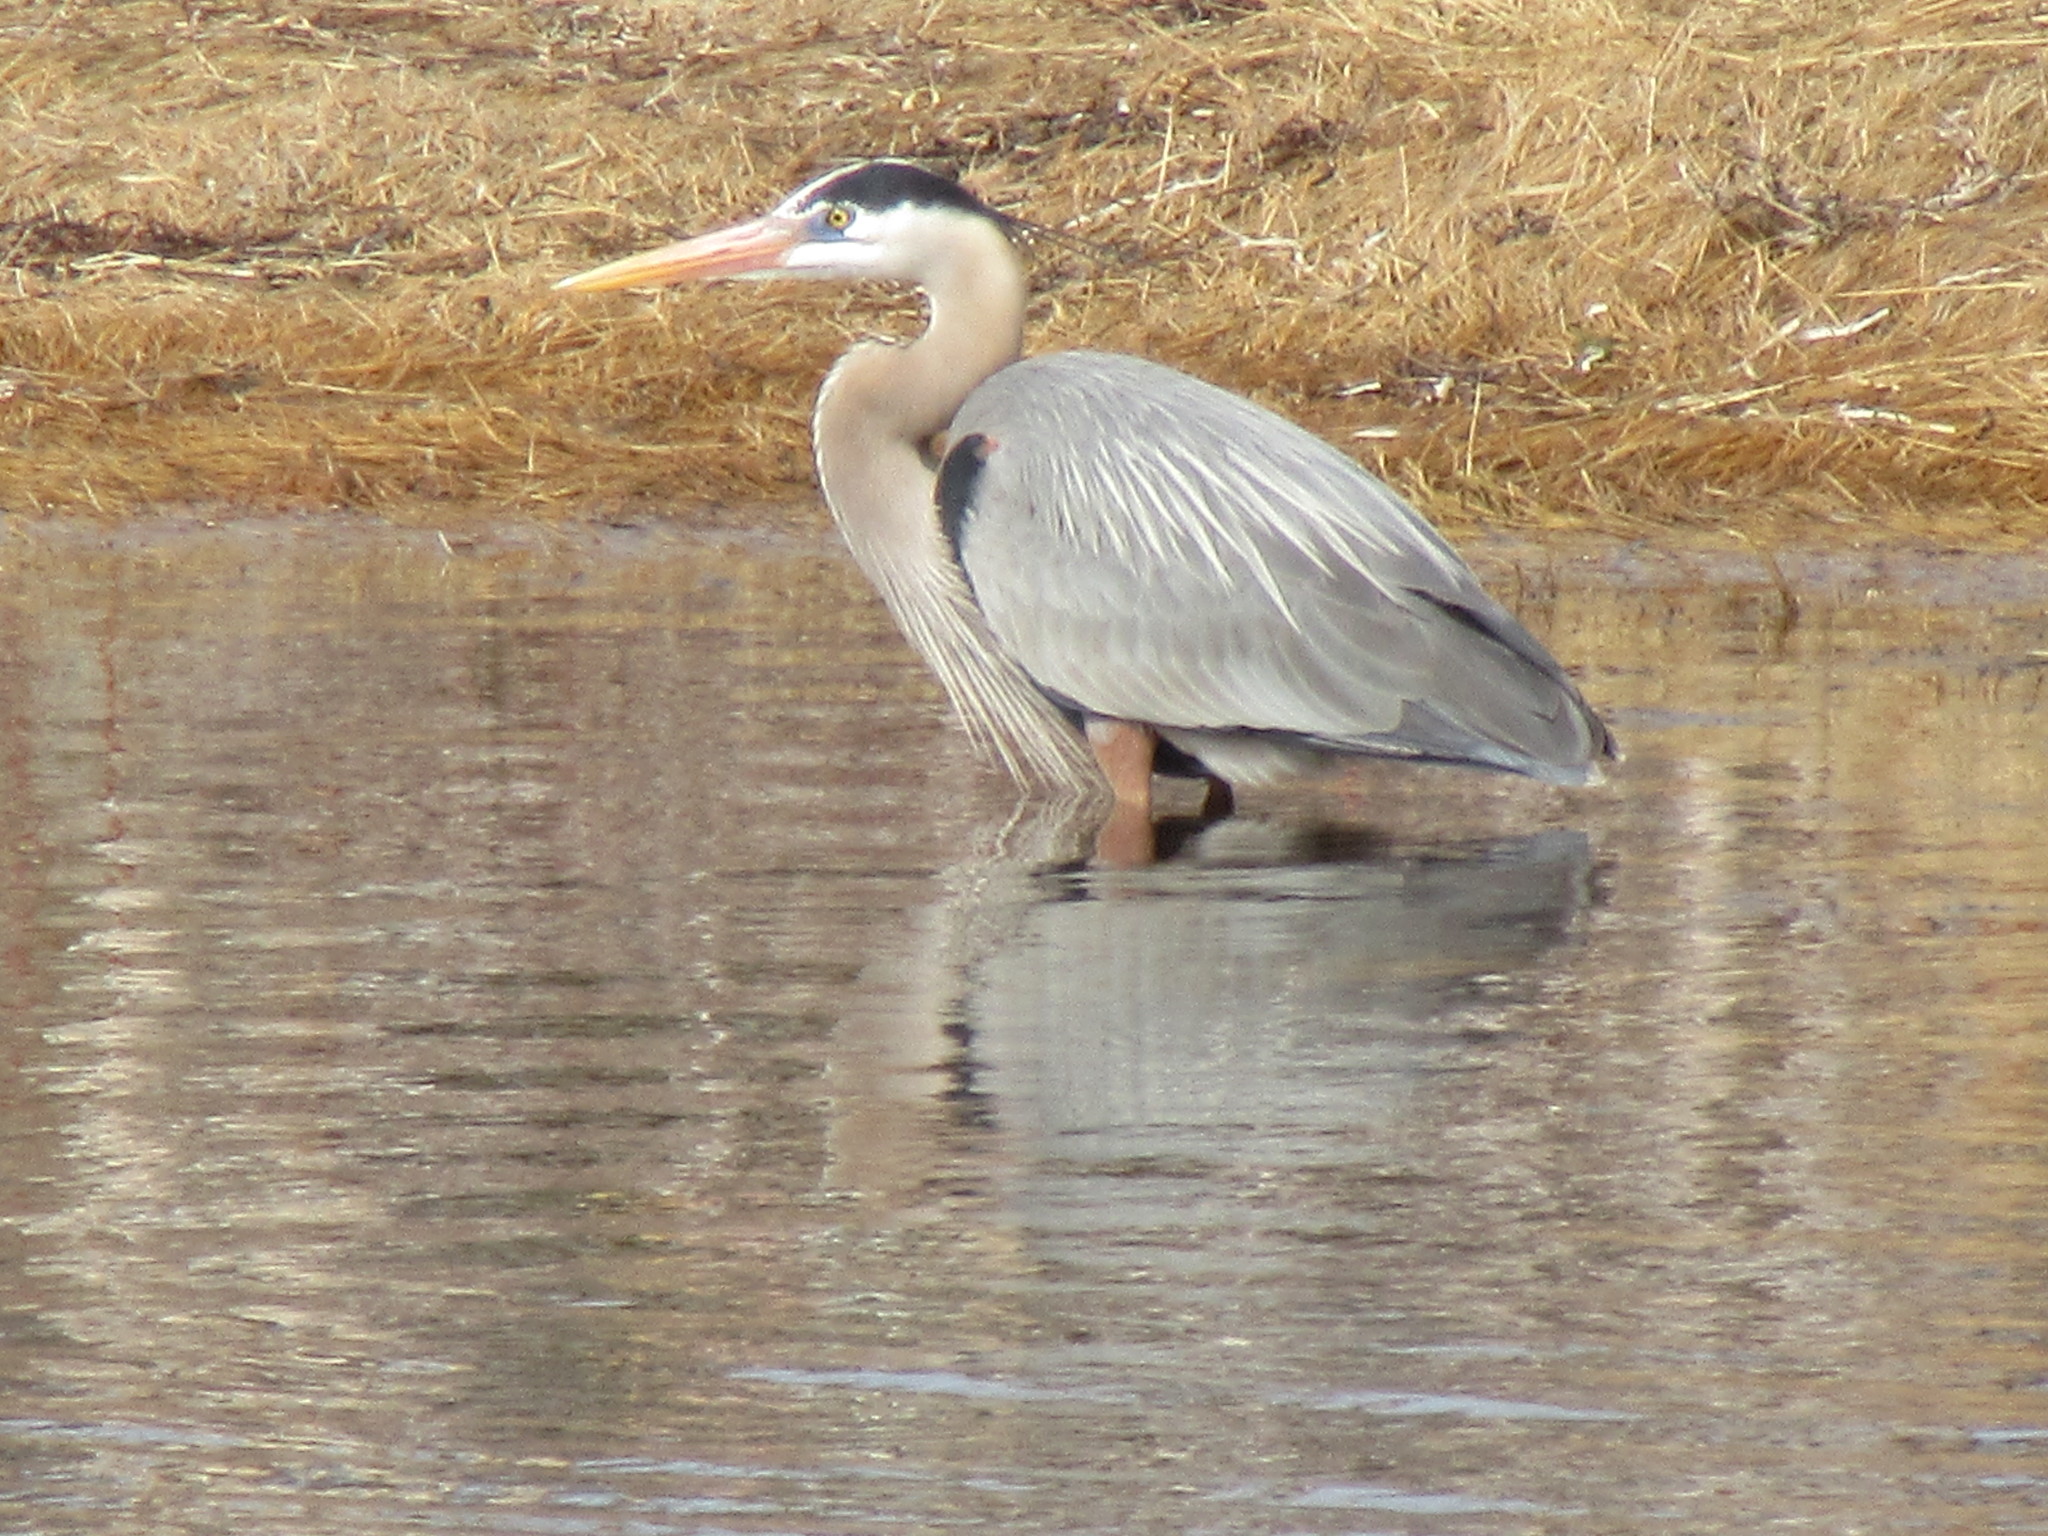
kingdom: Animalia
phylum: Chordata
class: Aves
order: Pelecaniformes
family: Ardeidae
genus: Ardea
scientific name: Ardea herodias
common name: Great blue heron
